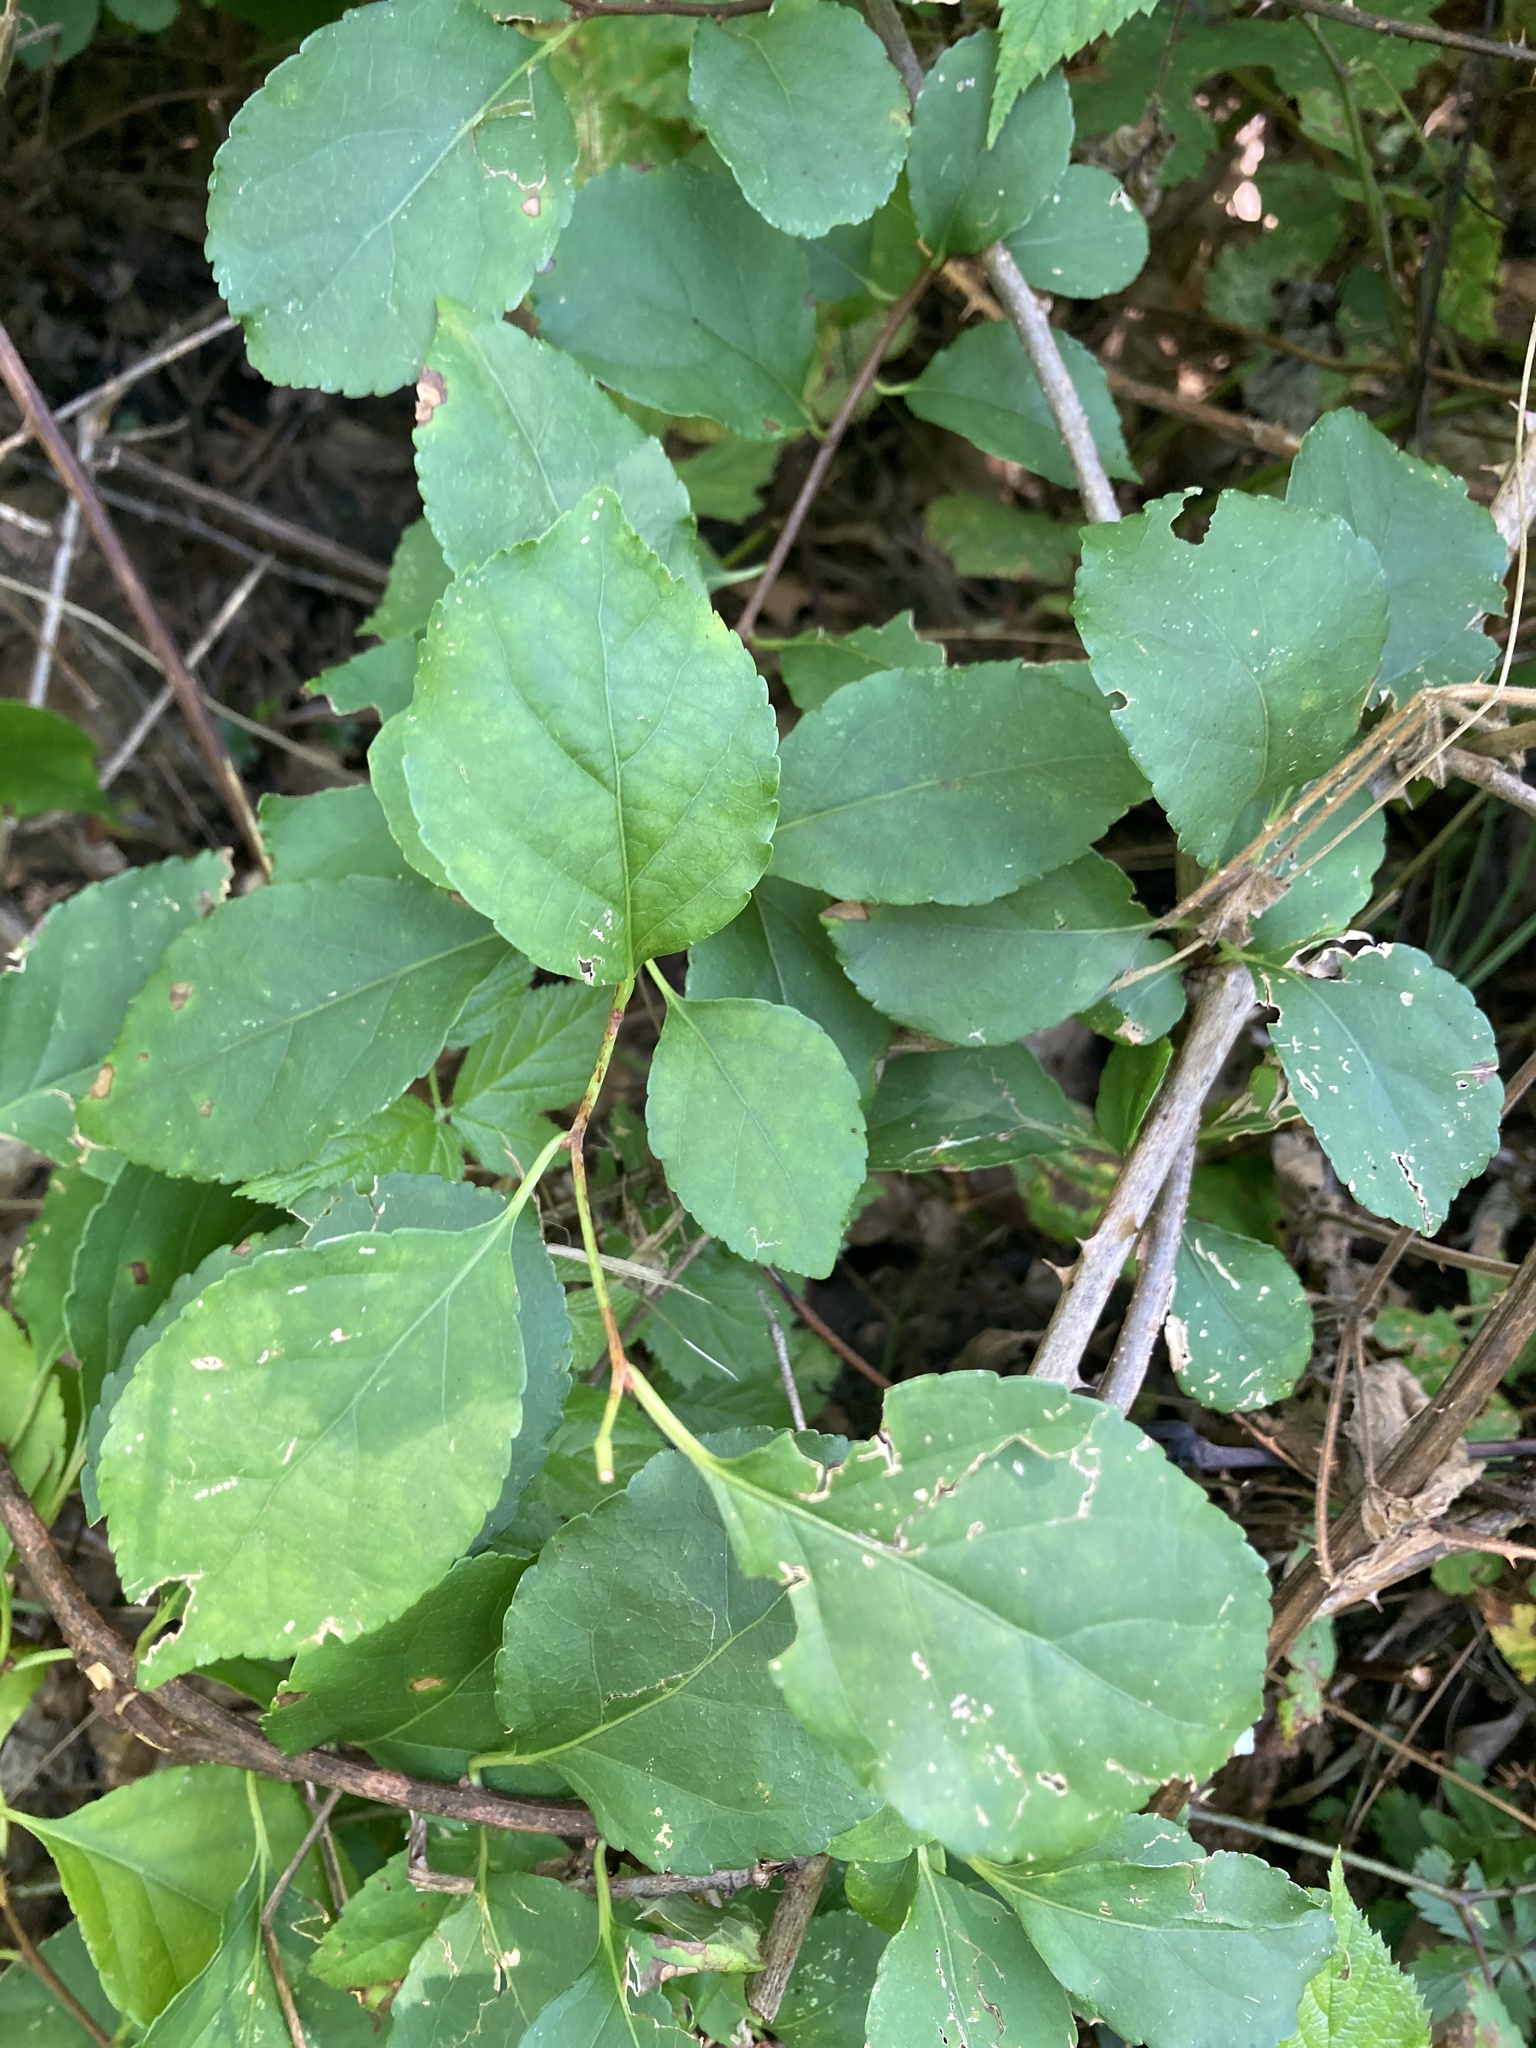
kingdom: Plantae
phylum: Tracheophyta
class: Magnoliopsida
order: Celastrales
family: Celastraceae
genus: Celastrus
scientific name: Celastrus orbiculatus
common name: Oriental bittersweet
